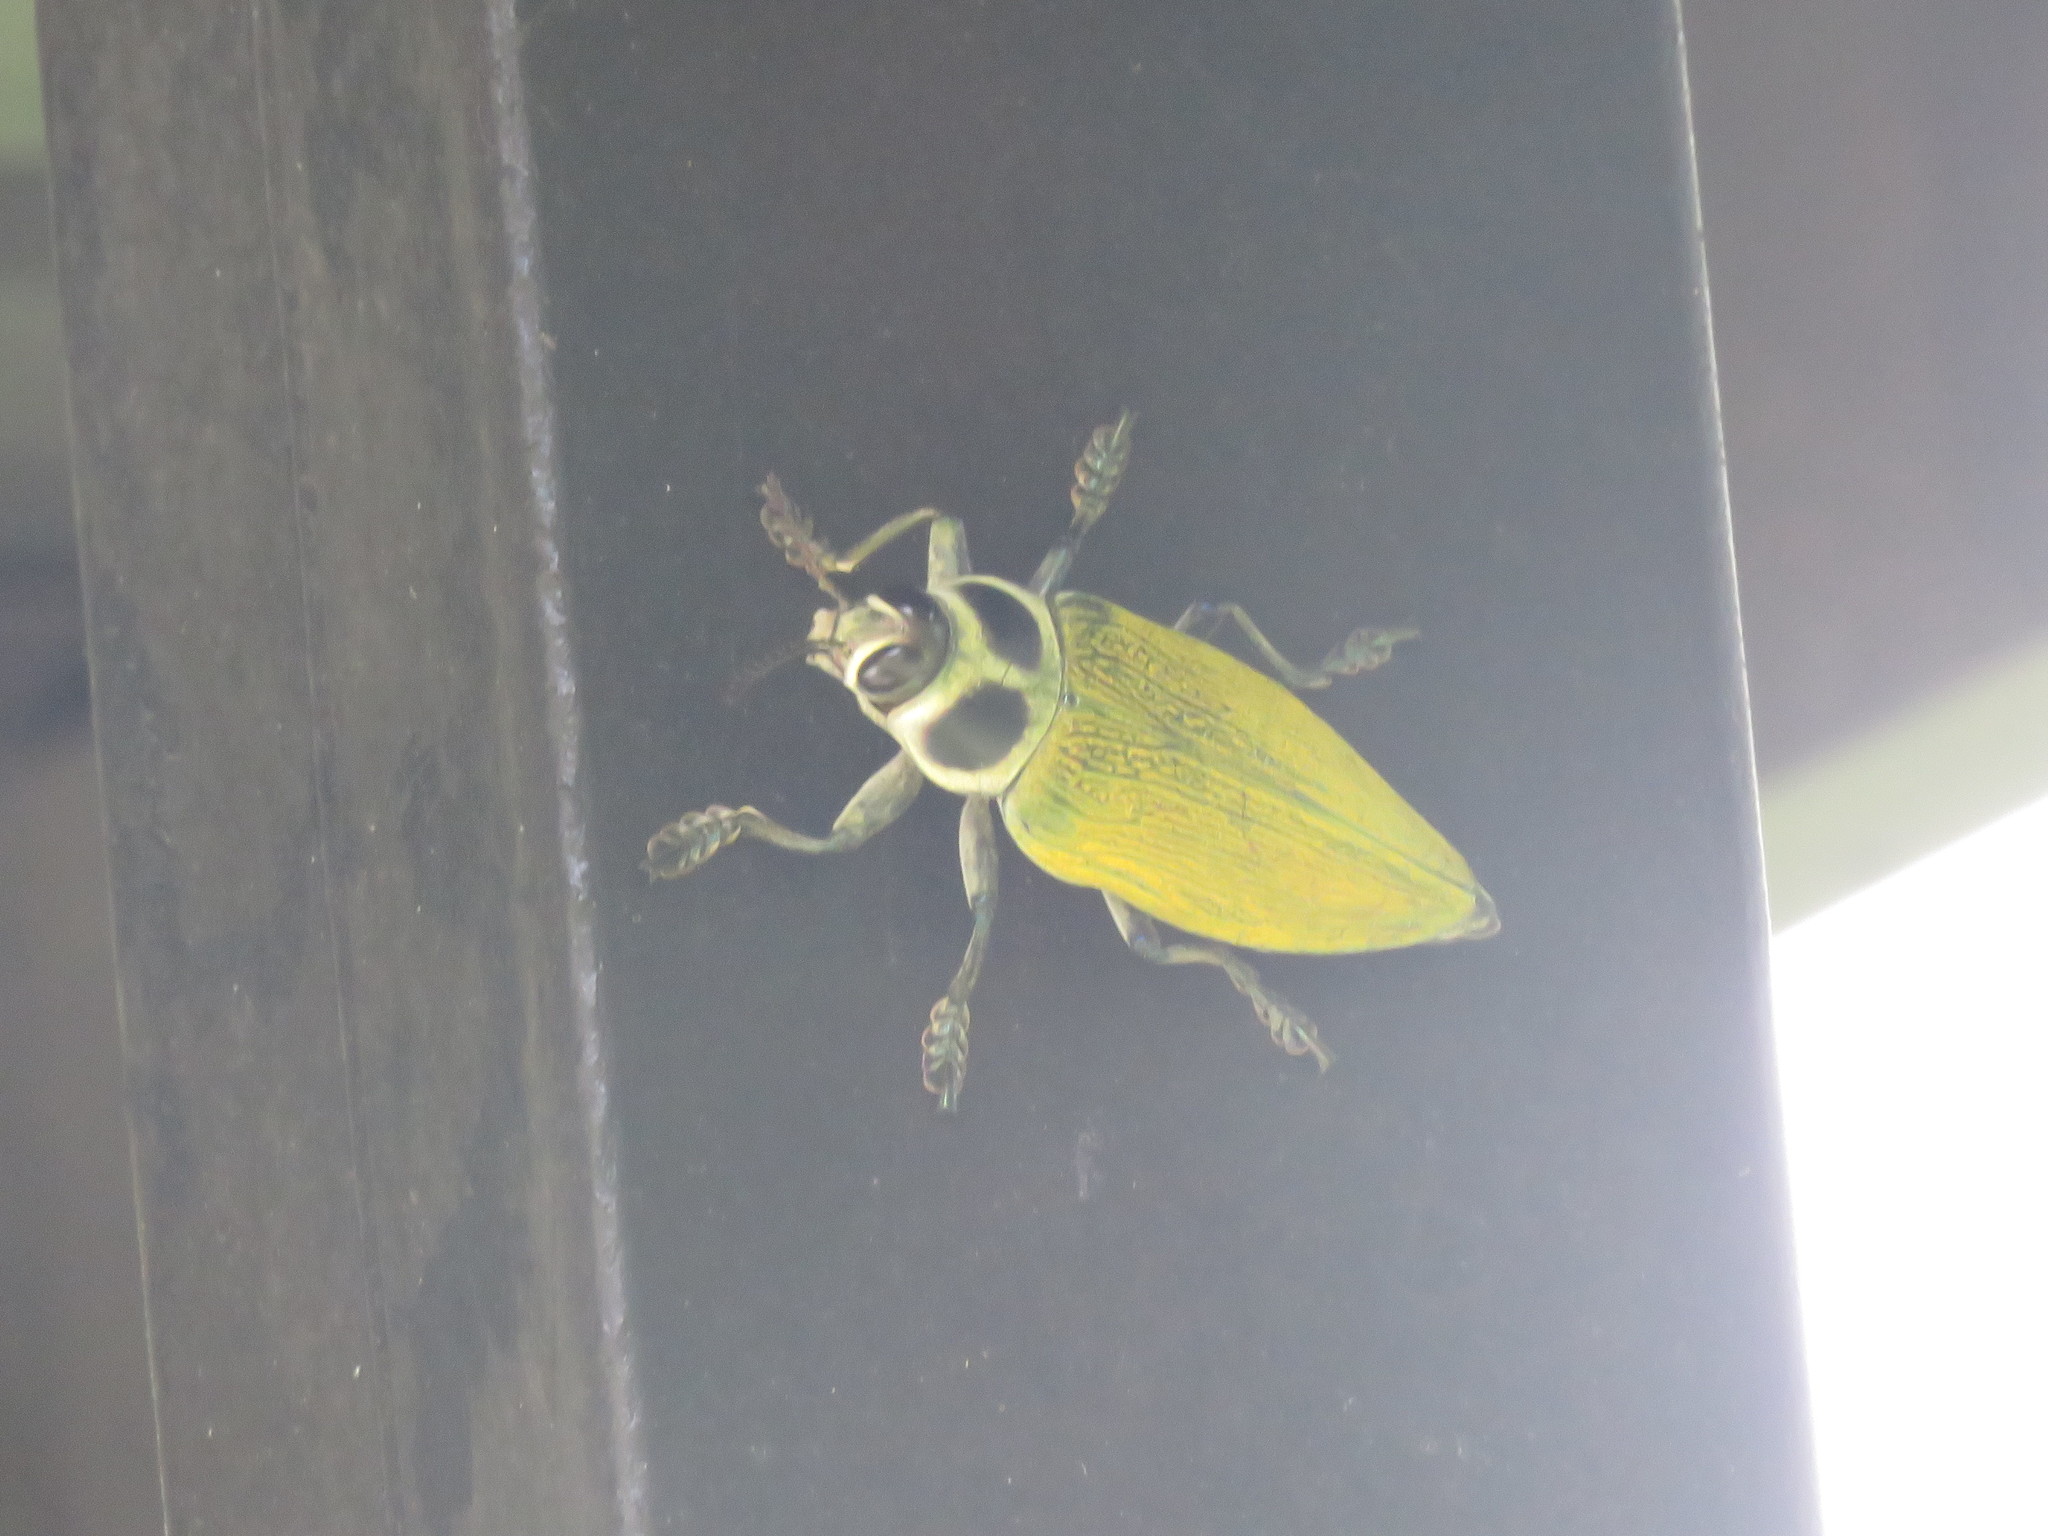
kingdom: Animalia
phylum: Arthropoda
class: Insecta
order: Coleoptera
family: Buprestidae
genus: Euchroma
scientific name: Euchroma giganteum
